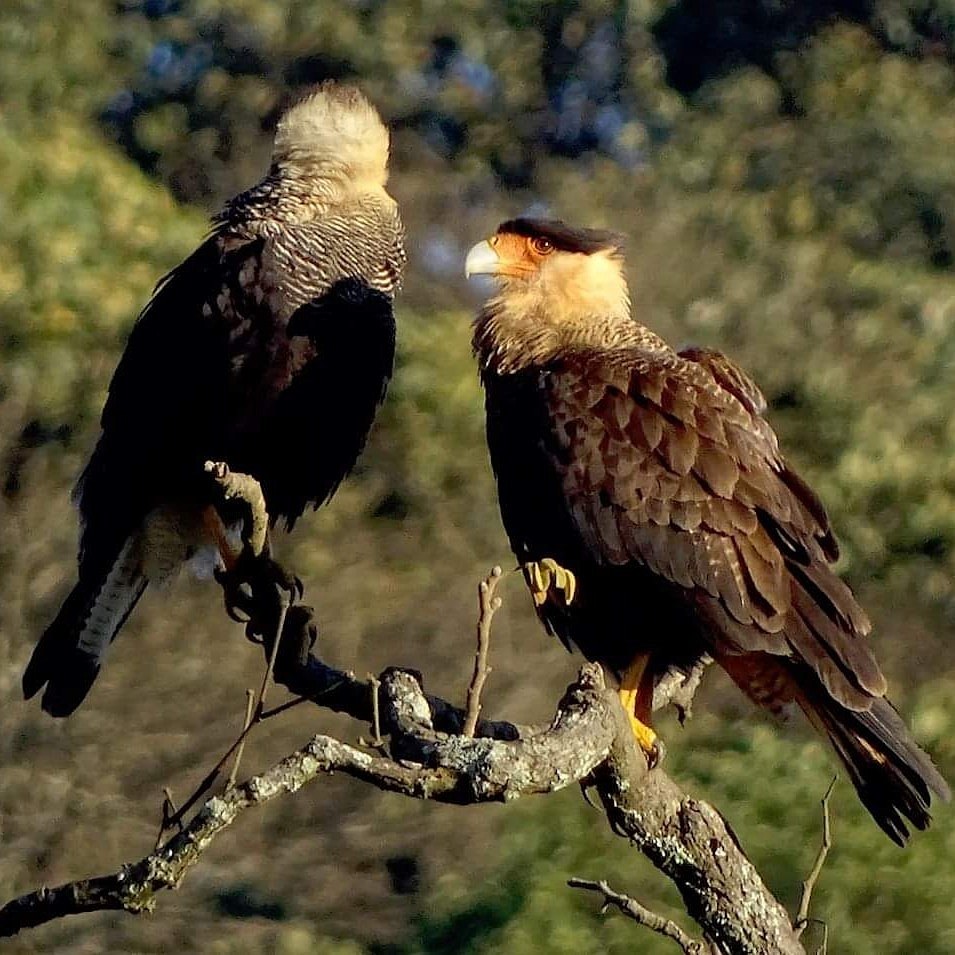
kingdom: Animalia
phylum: Chordata
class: Aves
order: Falconiformes
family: Falconidae
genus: Caracara
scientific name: Caracara plancus
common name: Southern caracara
